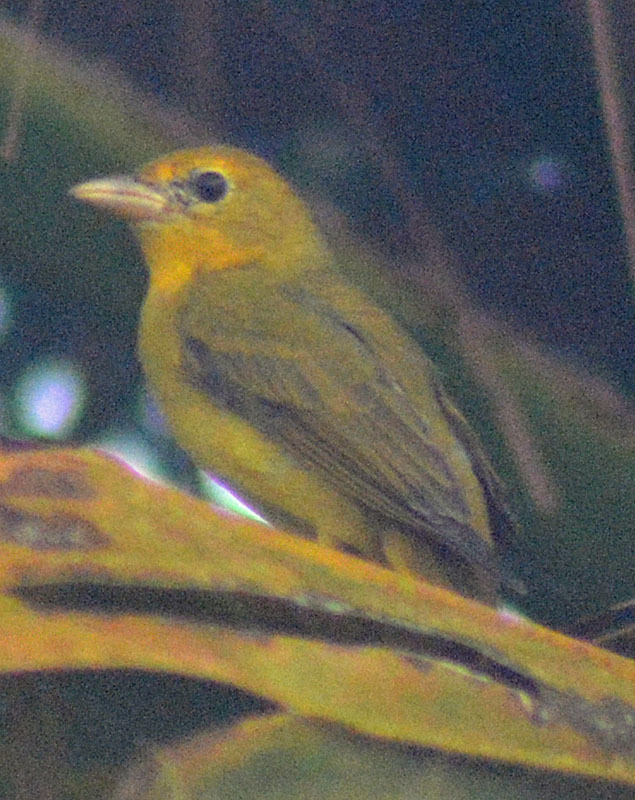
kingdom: Animalia
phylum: Chordata
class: Aves
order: Passeriformes
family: Cardinalidae
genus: Piranga
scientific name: Piranga rubra
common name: Summer tanager
